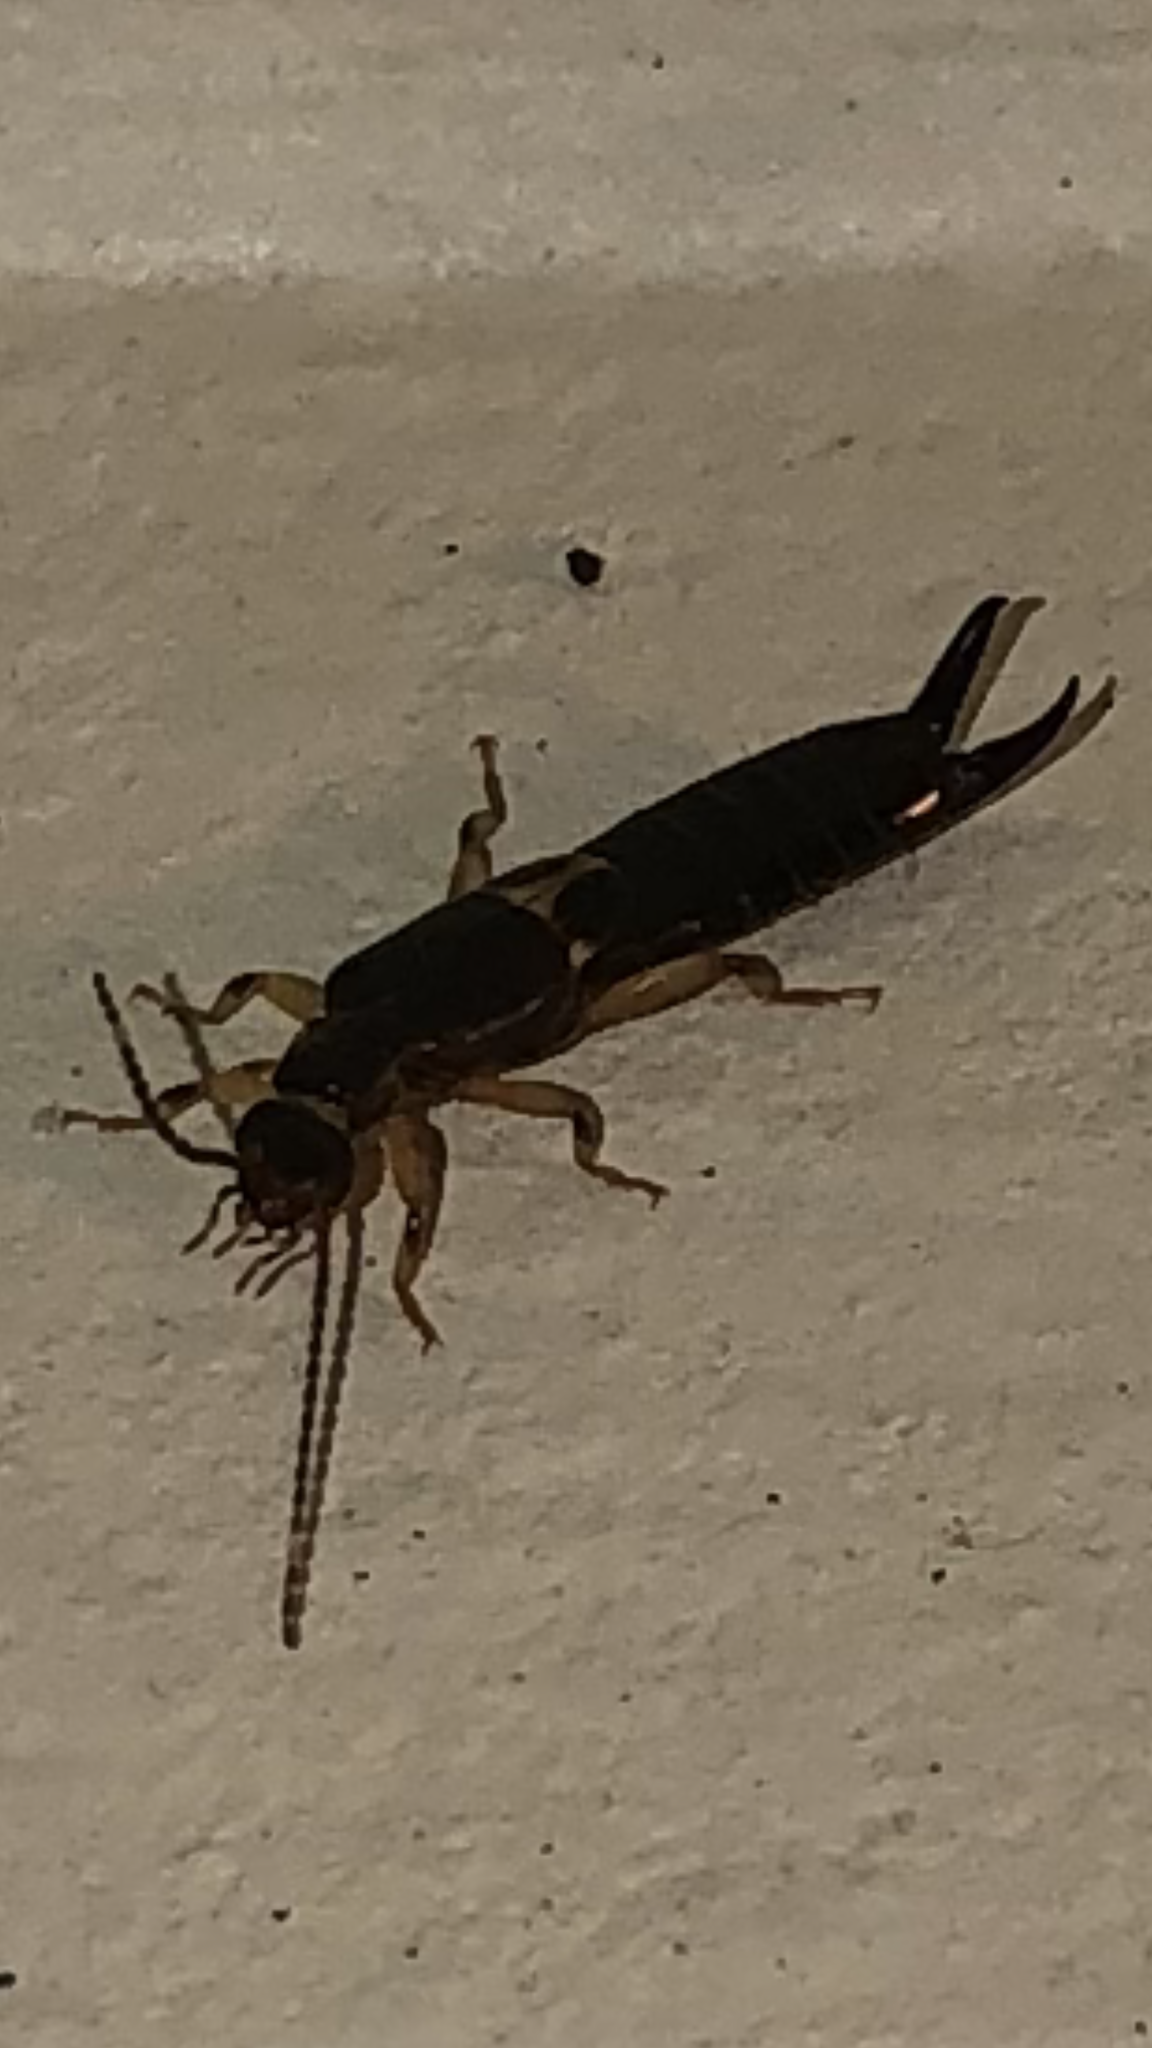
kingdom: Animalia
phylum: Arthropoda
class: Insecta
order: Dermaptera
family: Anisolabididae
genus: Euborellia
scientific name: Euborellia cincticollis
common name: African earwig
